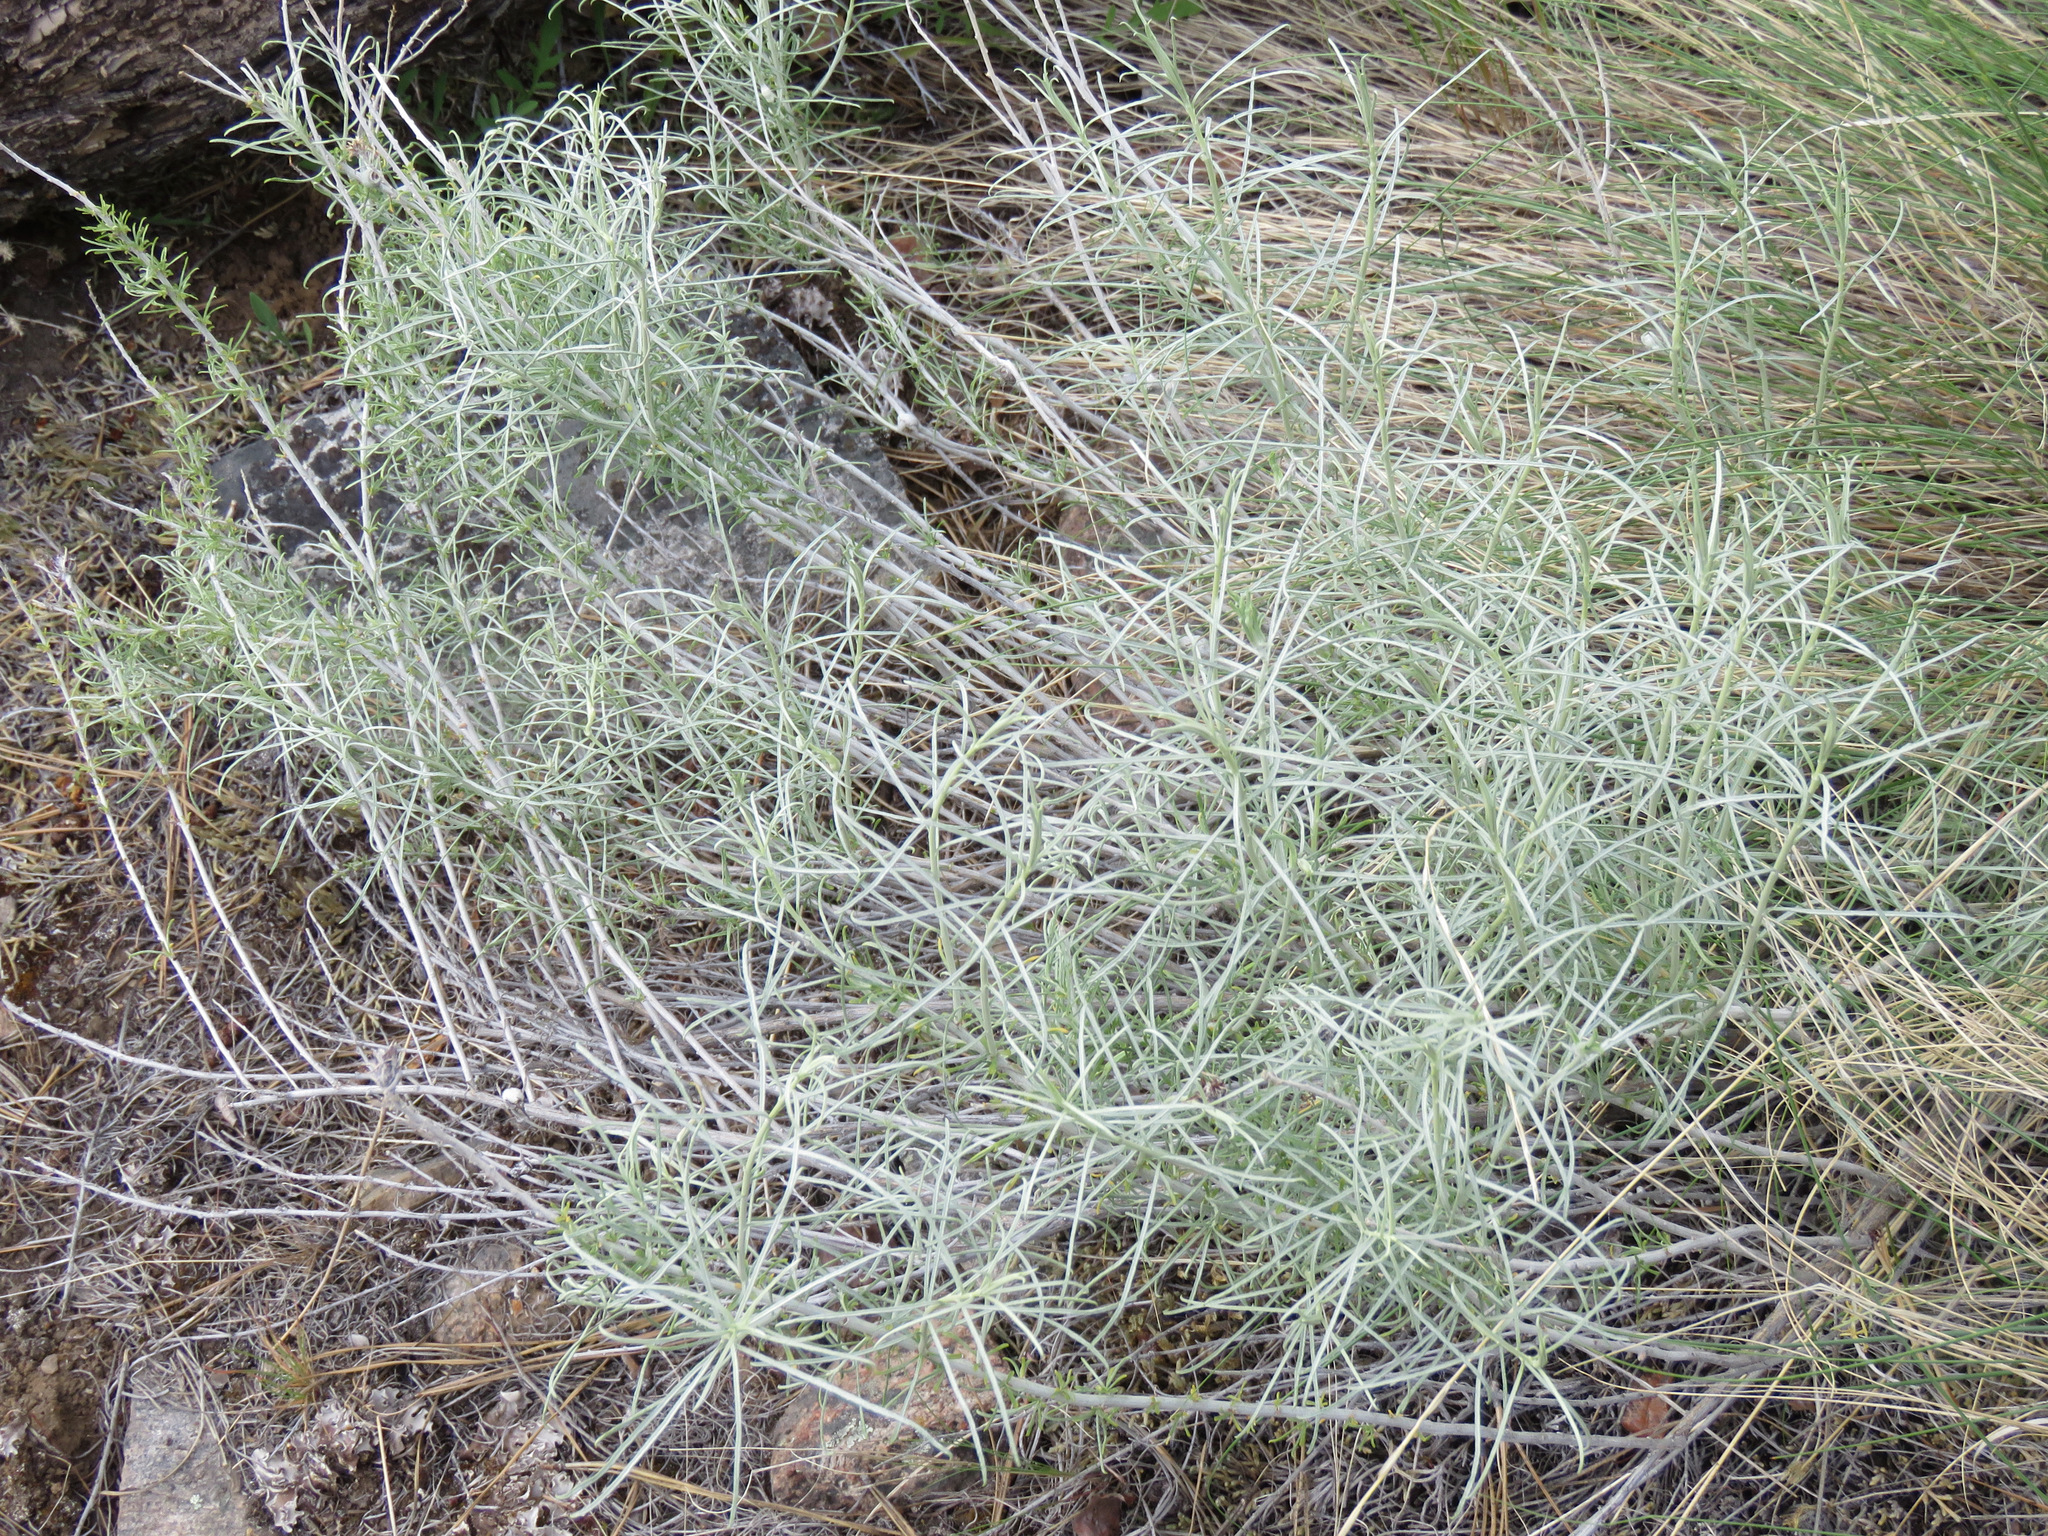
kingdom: Plantae
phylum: Tracheophyta
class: Magnoliopsida
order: Asterales
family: Asteraceae
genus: Ericameria
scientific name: Ericameria nauseosa
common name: Rubber rabbitbrush
